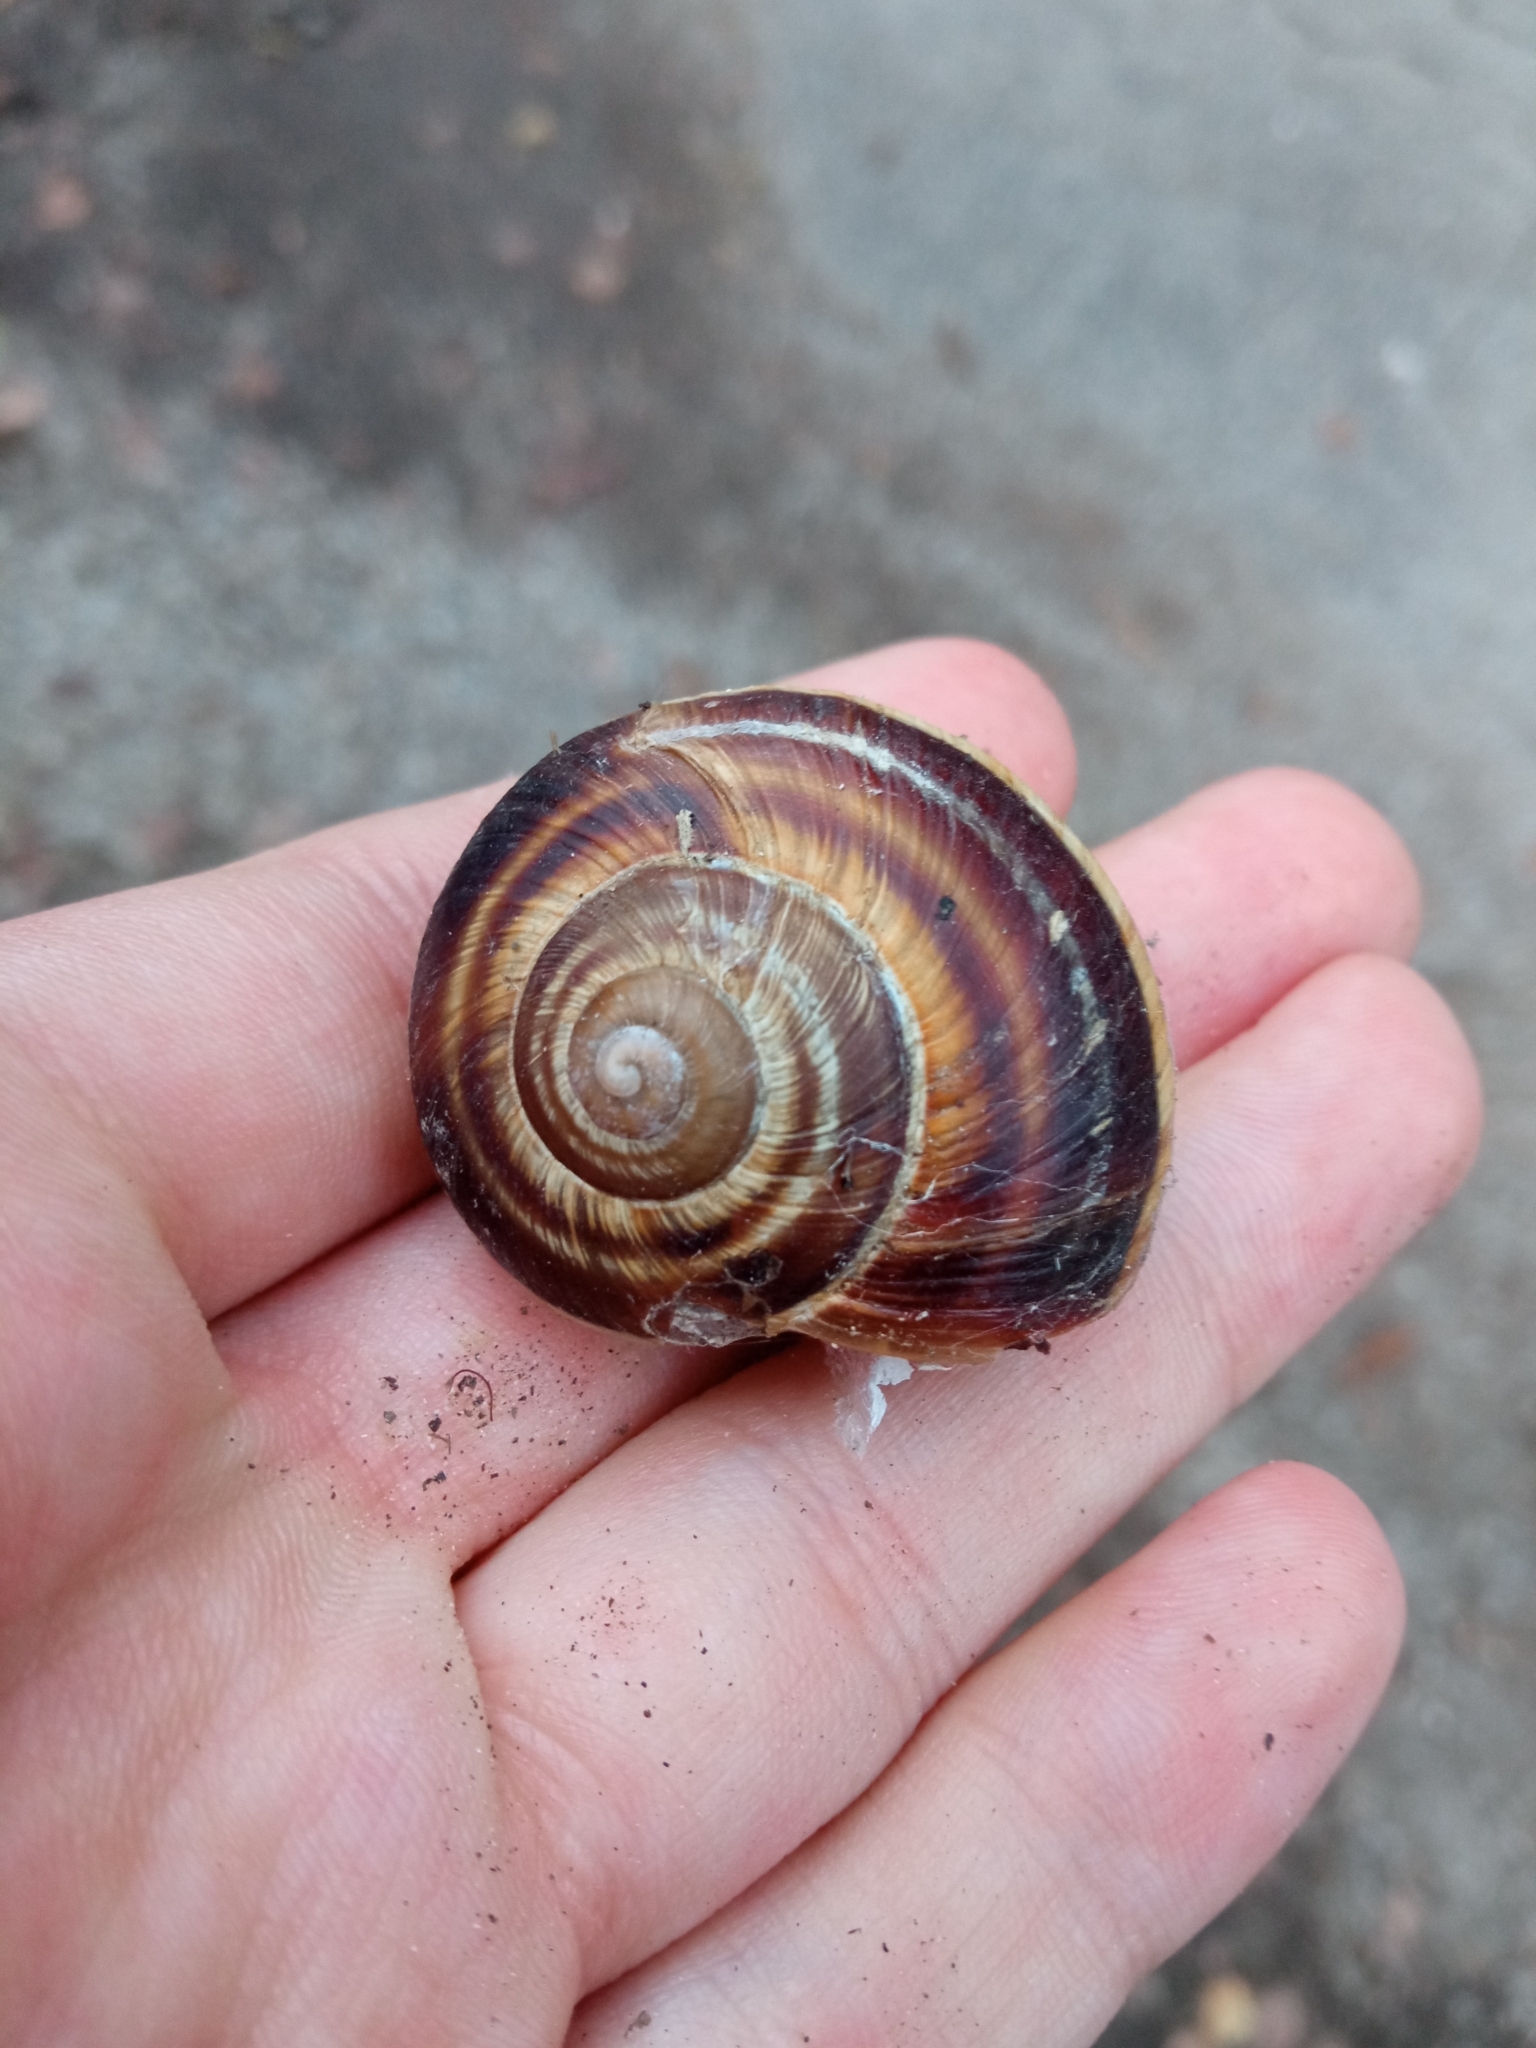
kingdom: Animalia
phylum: Mollusca
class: Gastropoda
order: Stylommatophora
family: Helicidae
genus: Helix
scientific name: Helix lucorum
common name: Turkish snail
